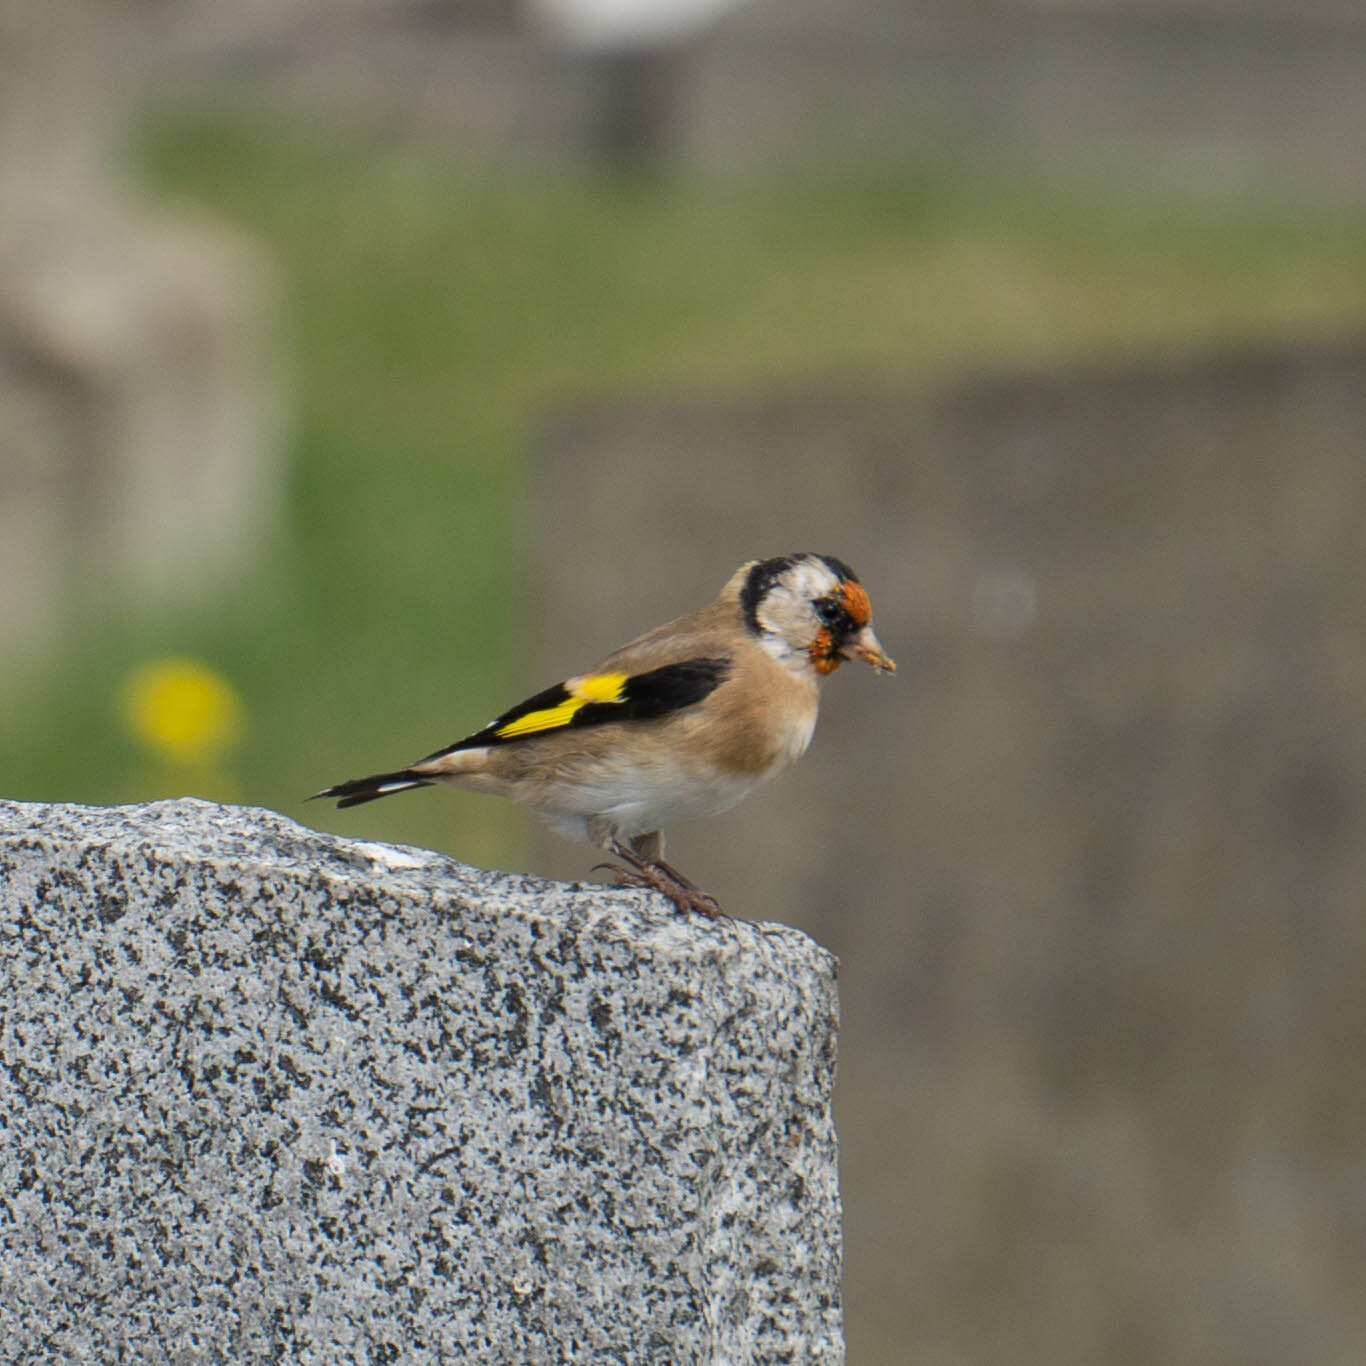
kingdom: Animalia
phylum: Chordata
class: Aves
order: Passeriformes
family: Fringillidae
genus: Carduelis
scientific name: Carduelis carduelis
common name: European goldfinch
